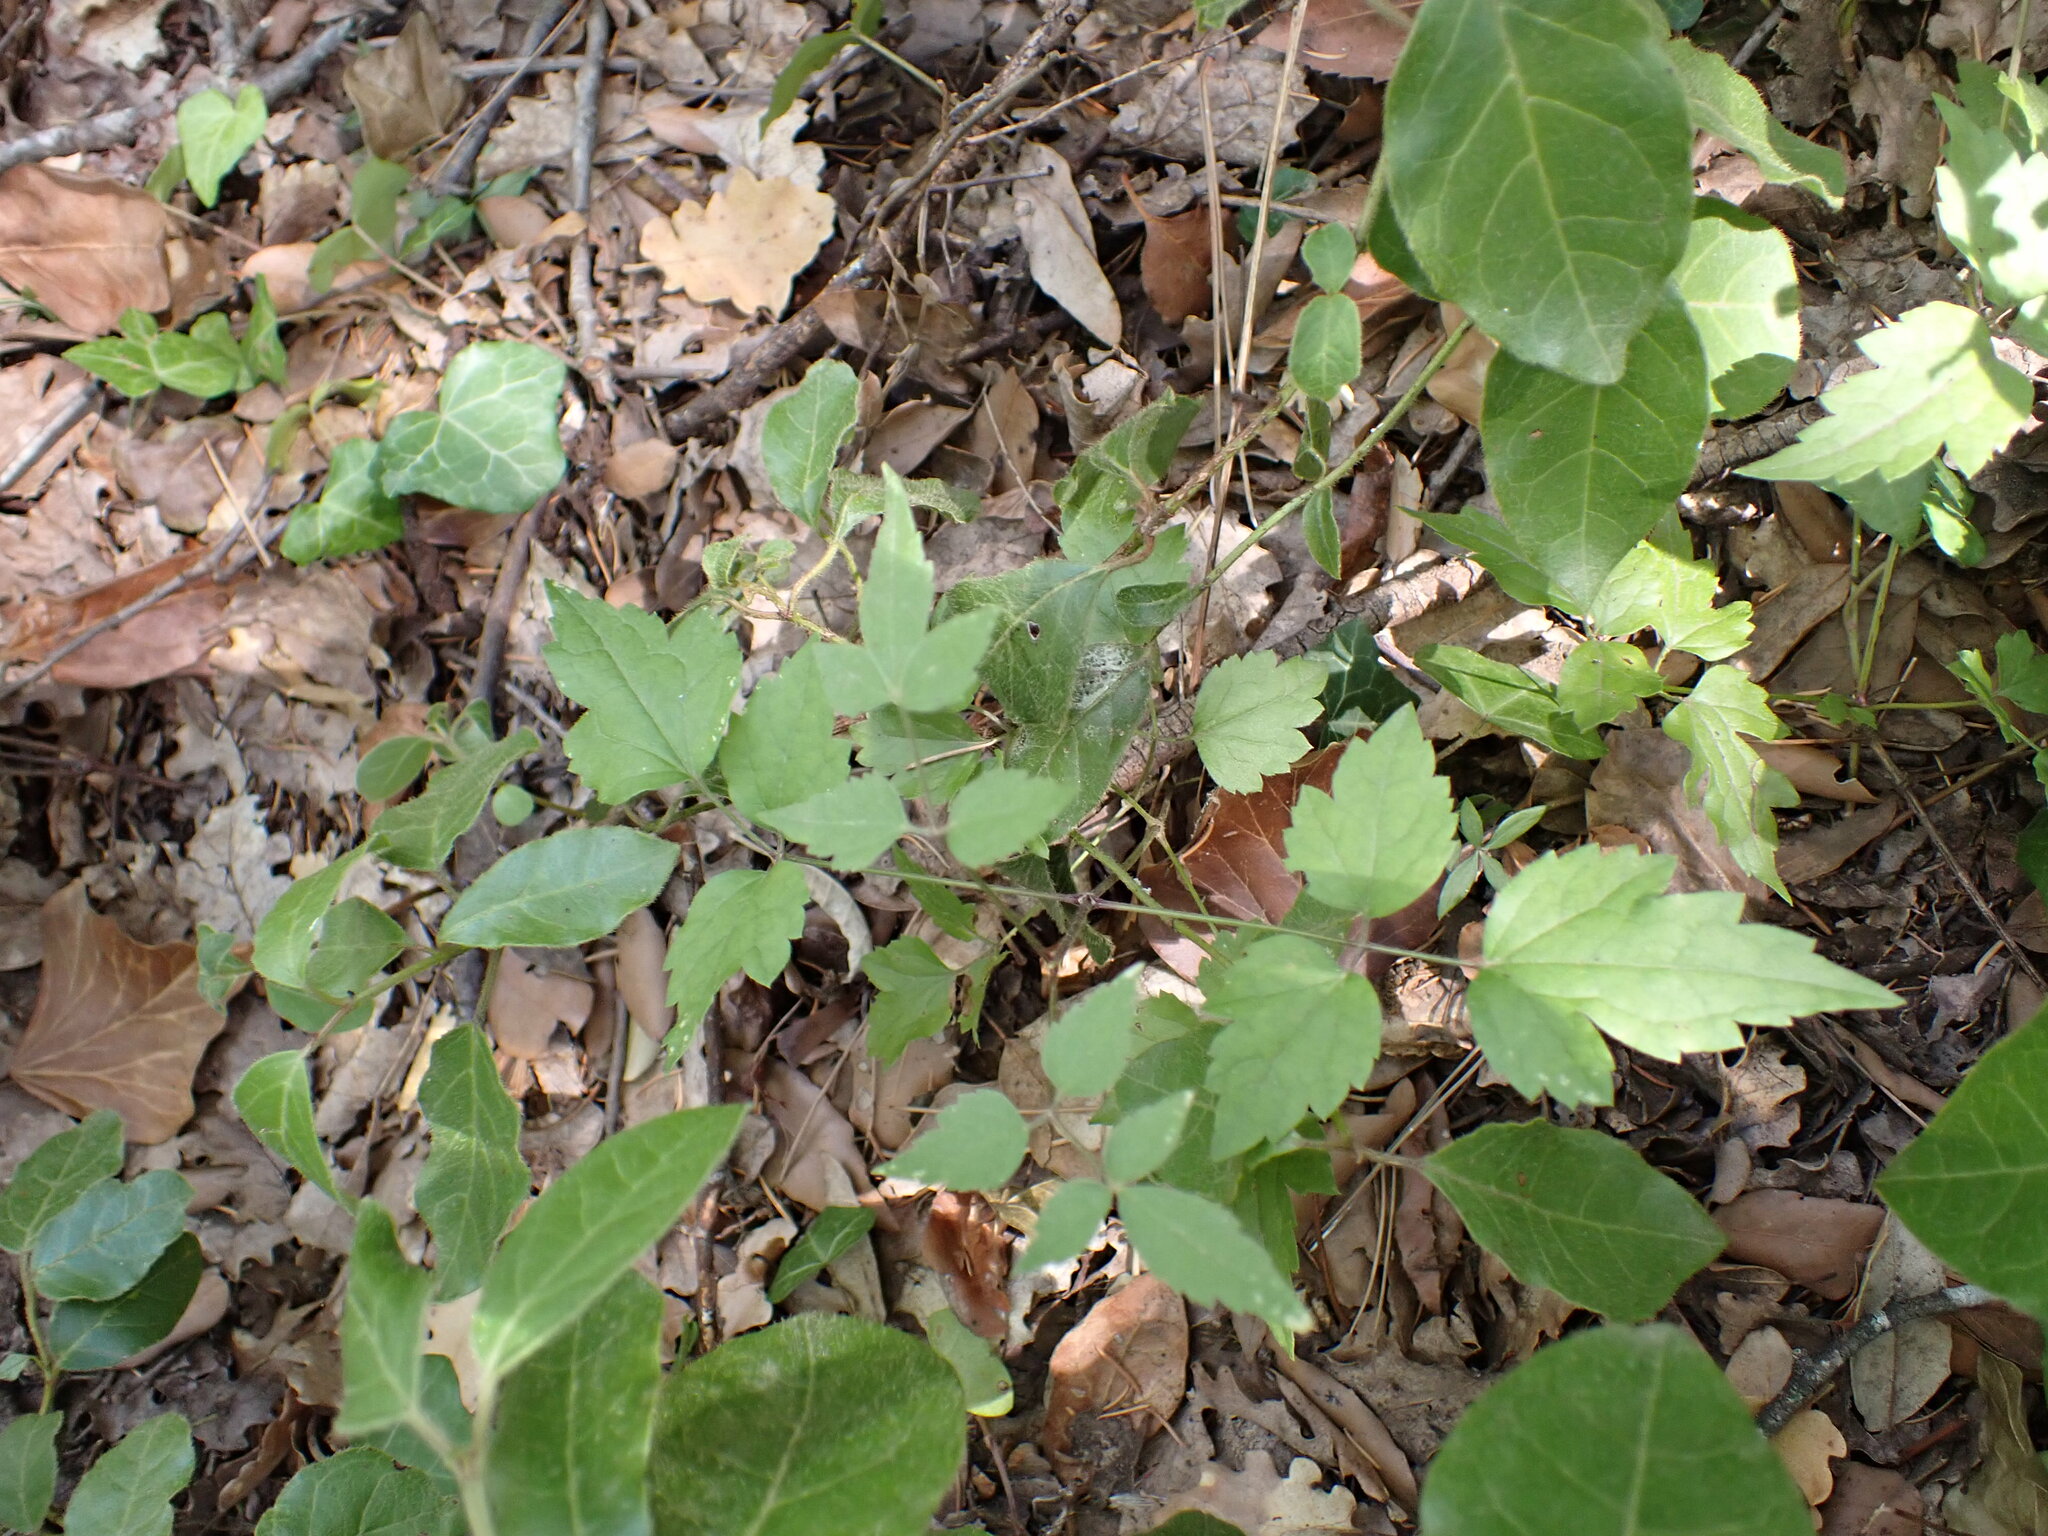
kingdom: Plantae
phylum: Tracheophyta
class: Magnoliopsida
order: Ranunculales
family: Ranunculaceae
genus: Clematis
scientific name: Clematis vitalba
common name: Evergreen clematis
